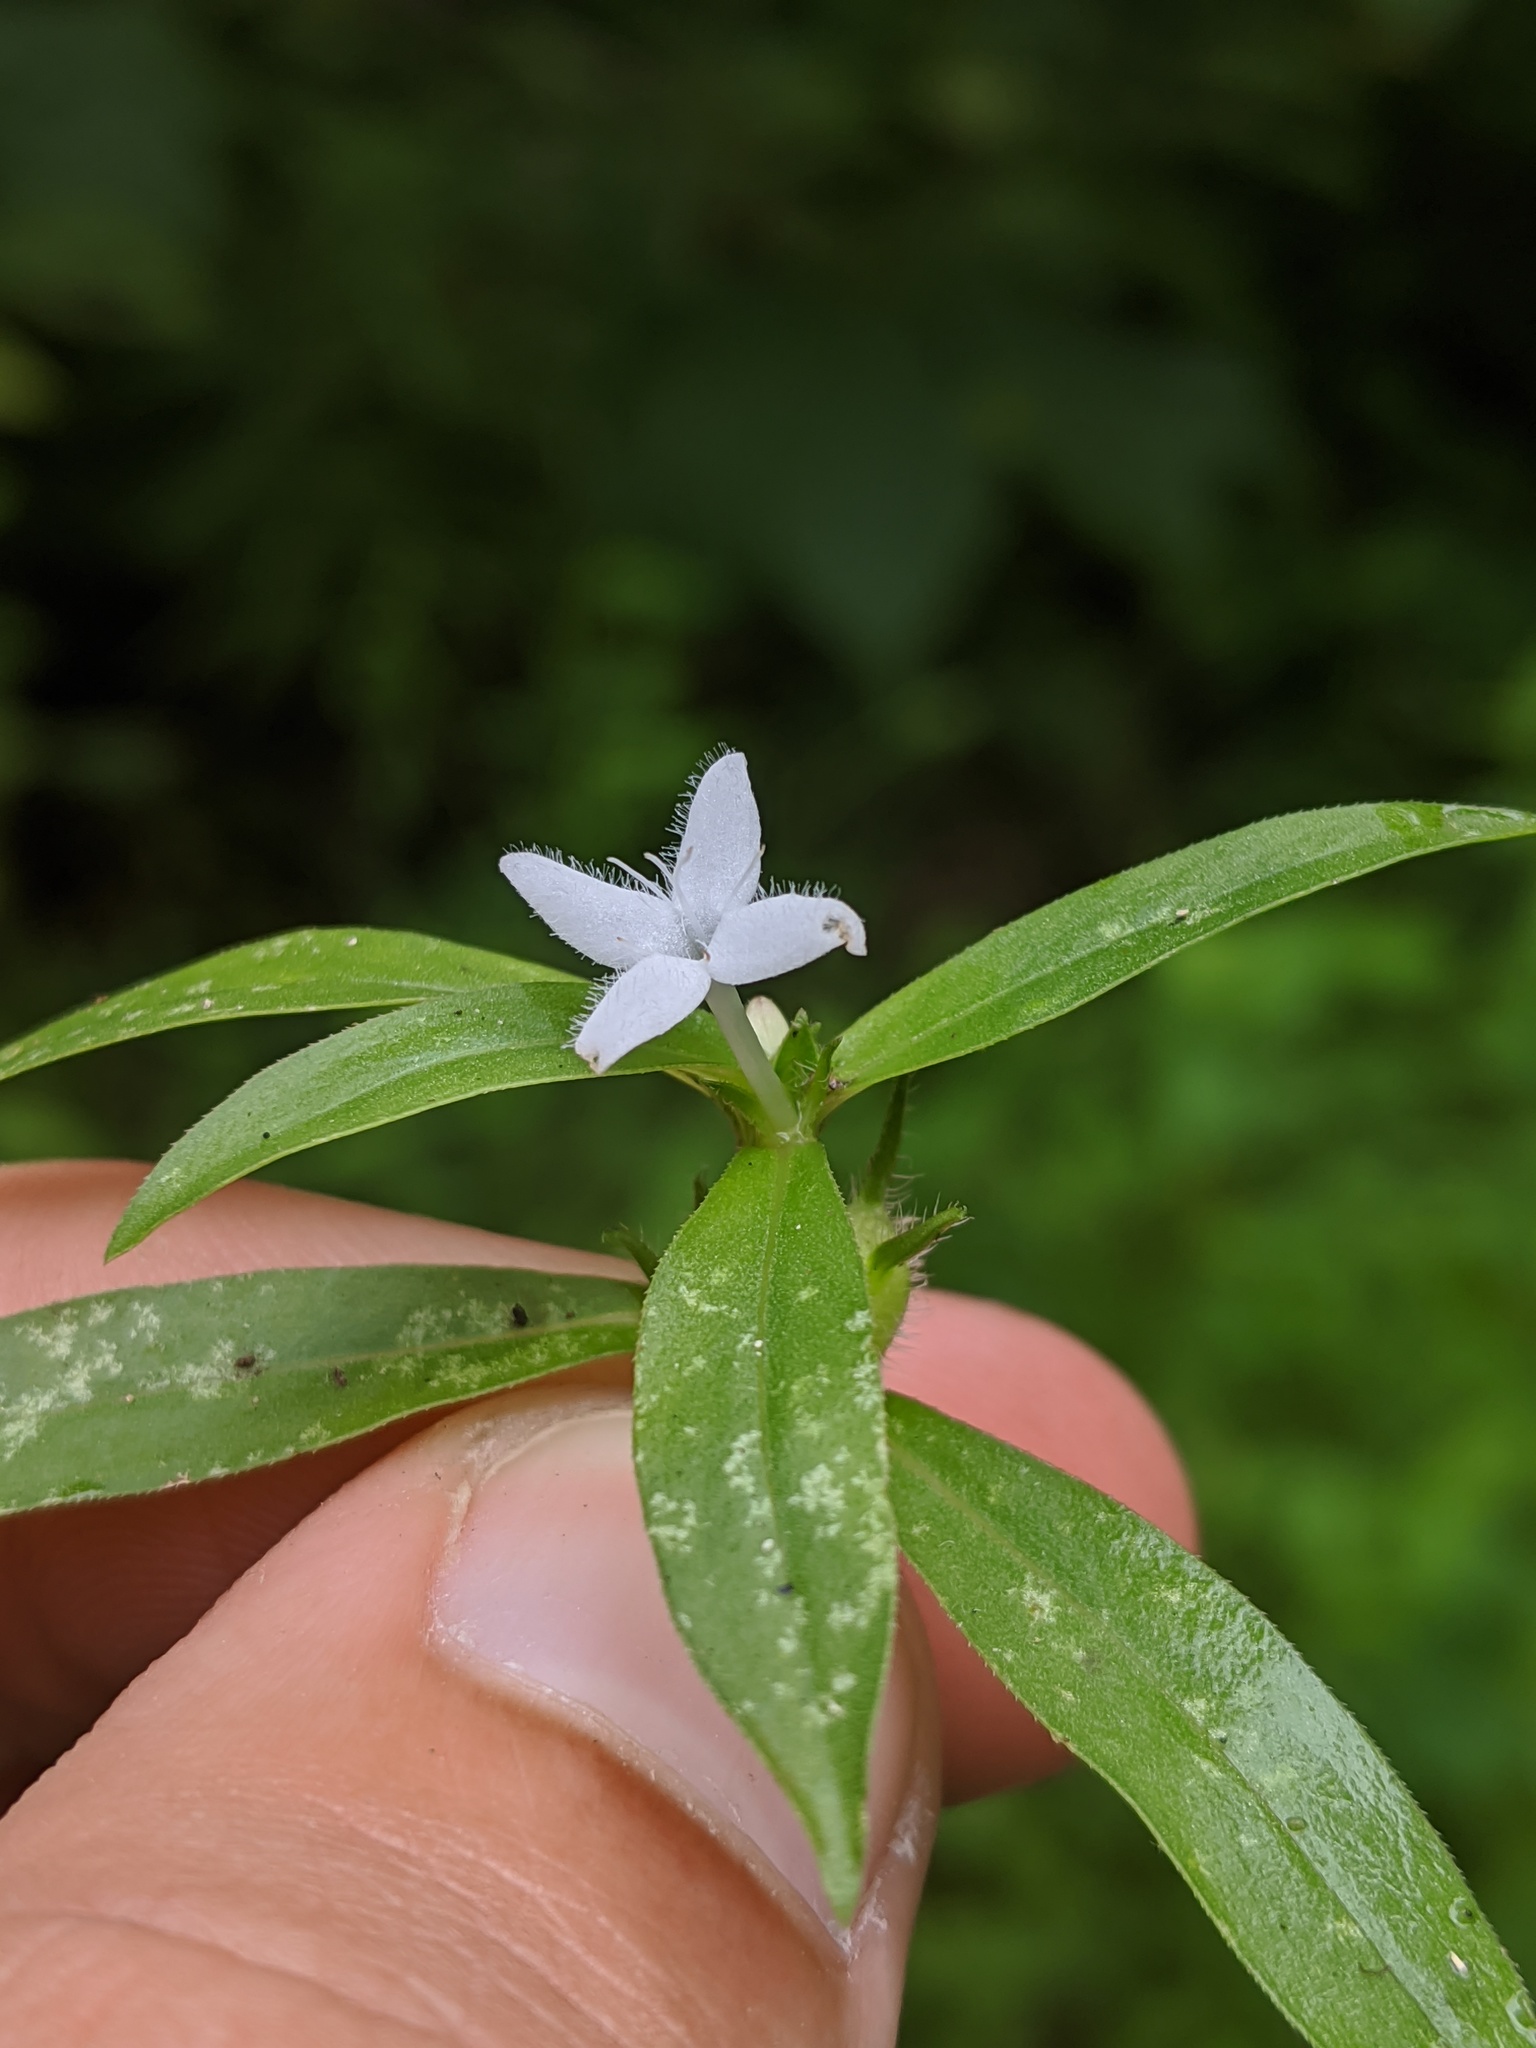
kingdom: Plantae
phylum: Tracheophyta
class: Magnoliopsida
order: Gentianales
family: Rubiaceae
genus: Diodia
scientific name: Diodia virginiana
